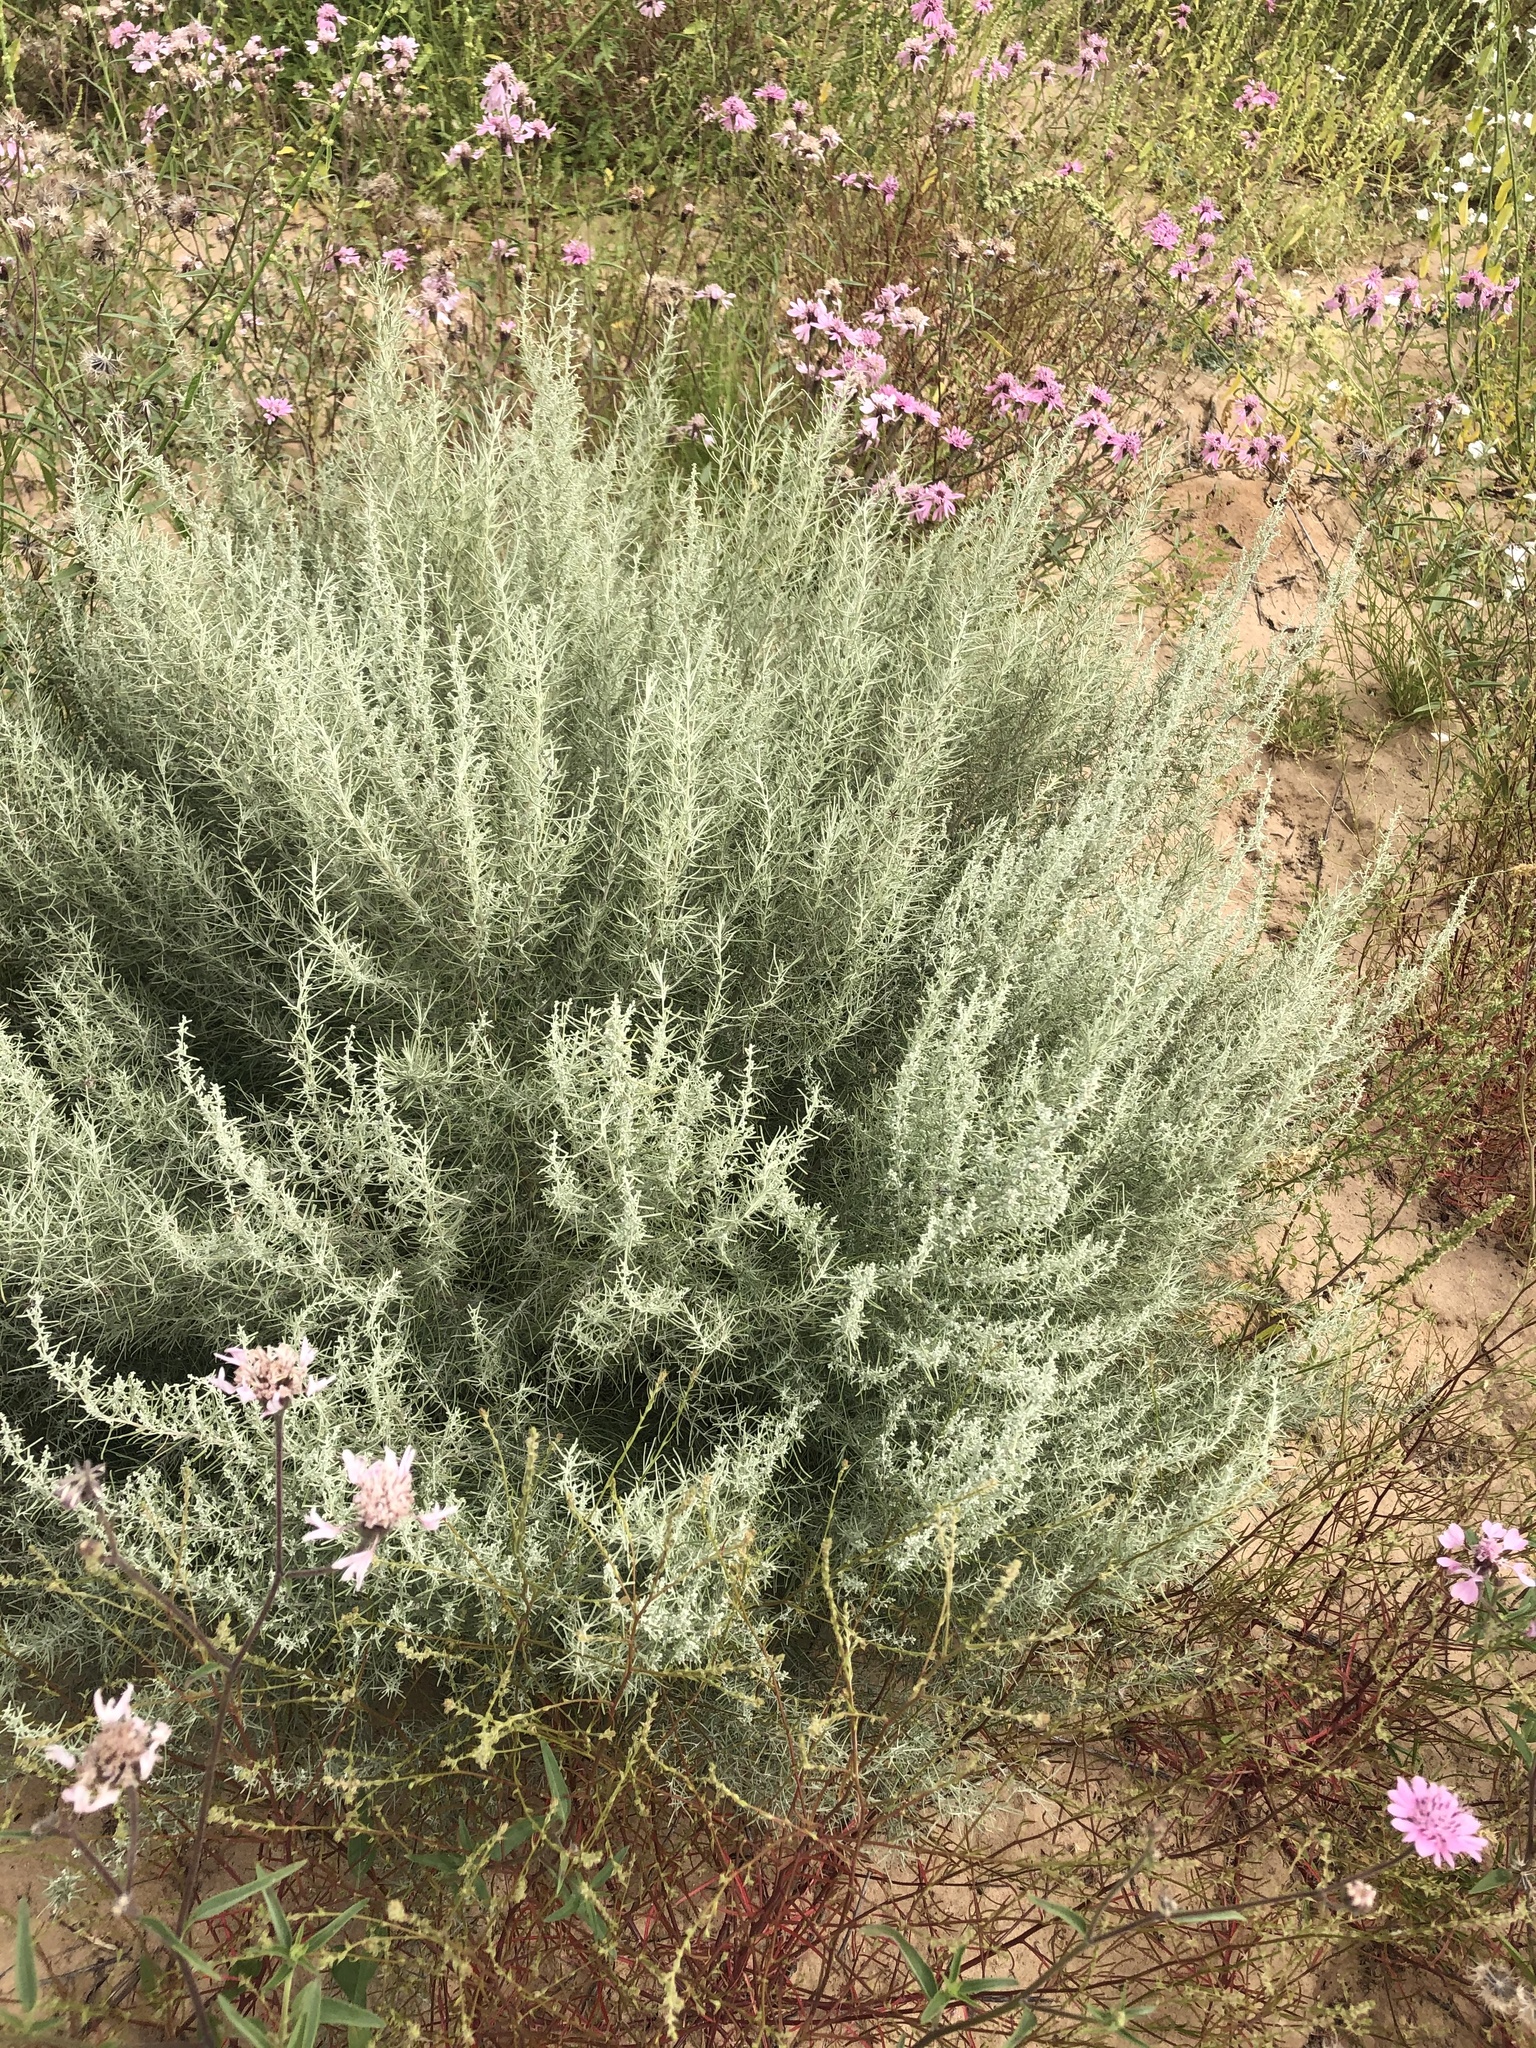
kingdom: Plantae
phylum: Tracheophyta
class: Magnoliopsida
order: Asterales
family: Asteraceae
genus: Artemisia
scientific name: Artemisia filifolia
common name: Sand-sage
